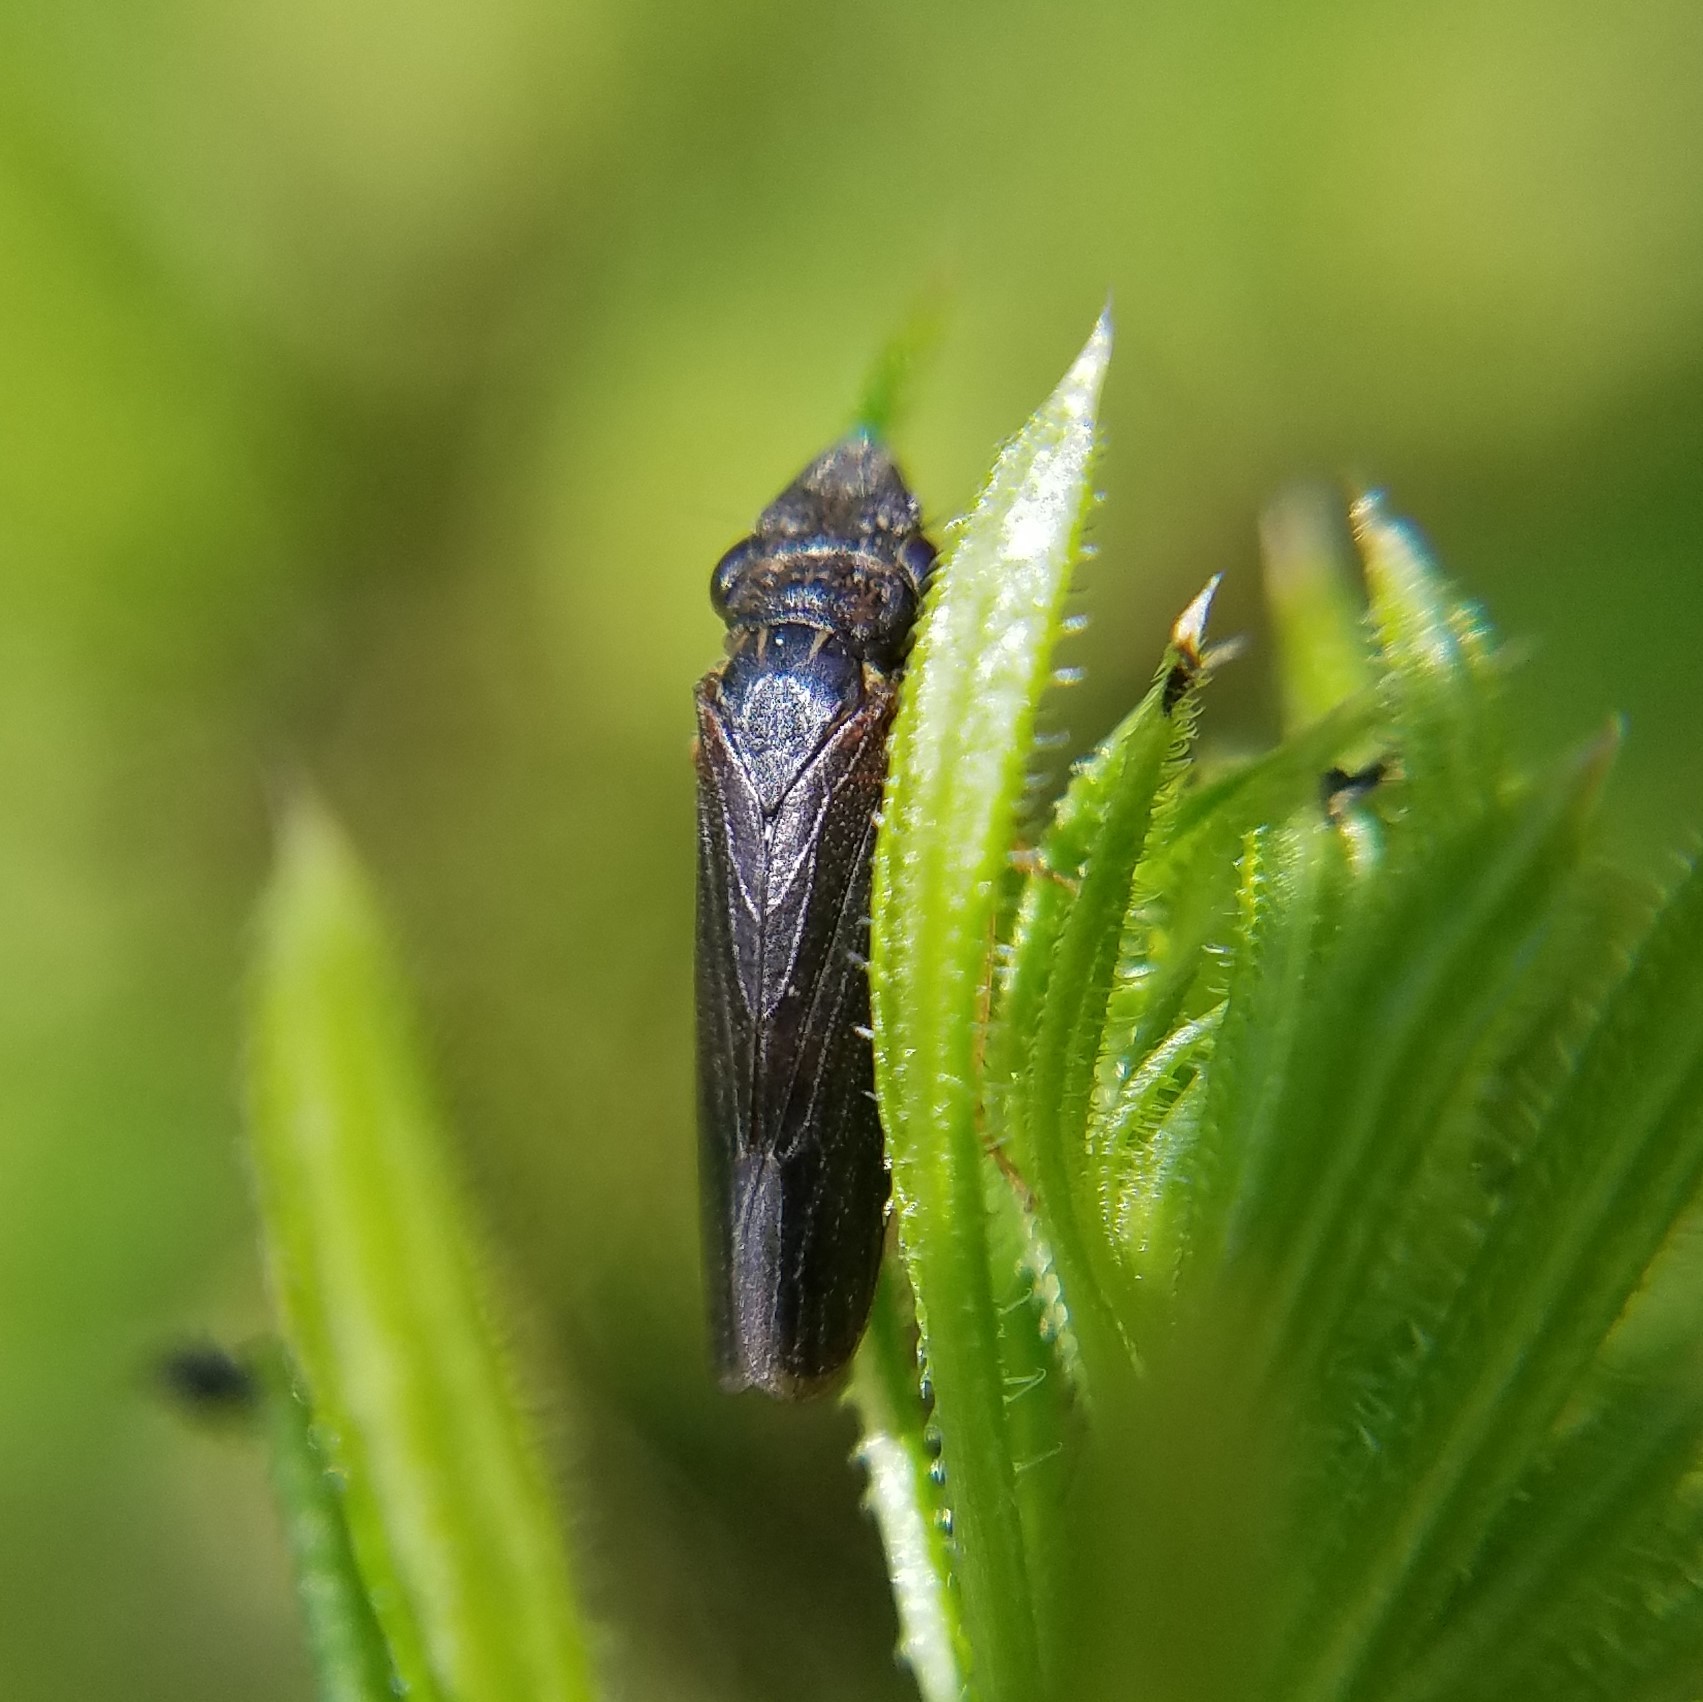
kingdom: Animalia
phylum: Arthropoda
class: Insecta
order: Hemiptera
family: Cicadellidae
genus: Homalodisca
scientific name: Homalodisca insolita
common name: Johnson grass sharpshooter
